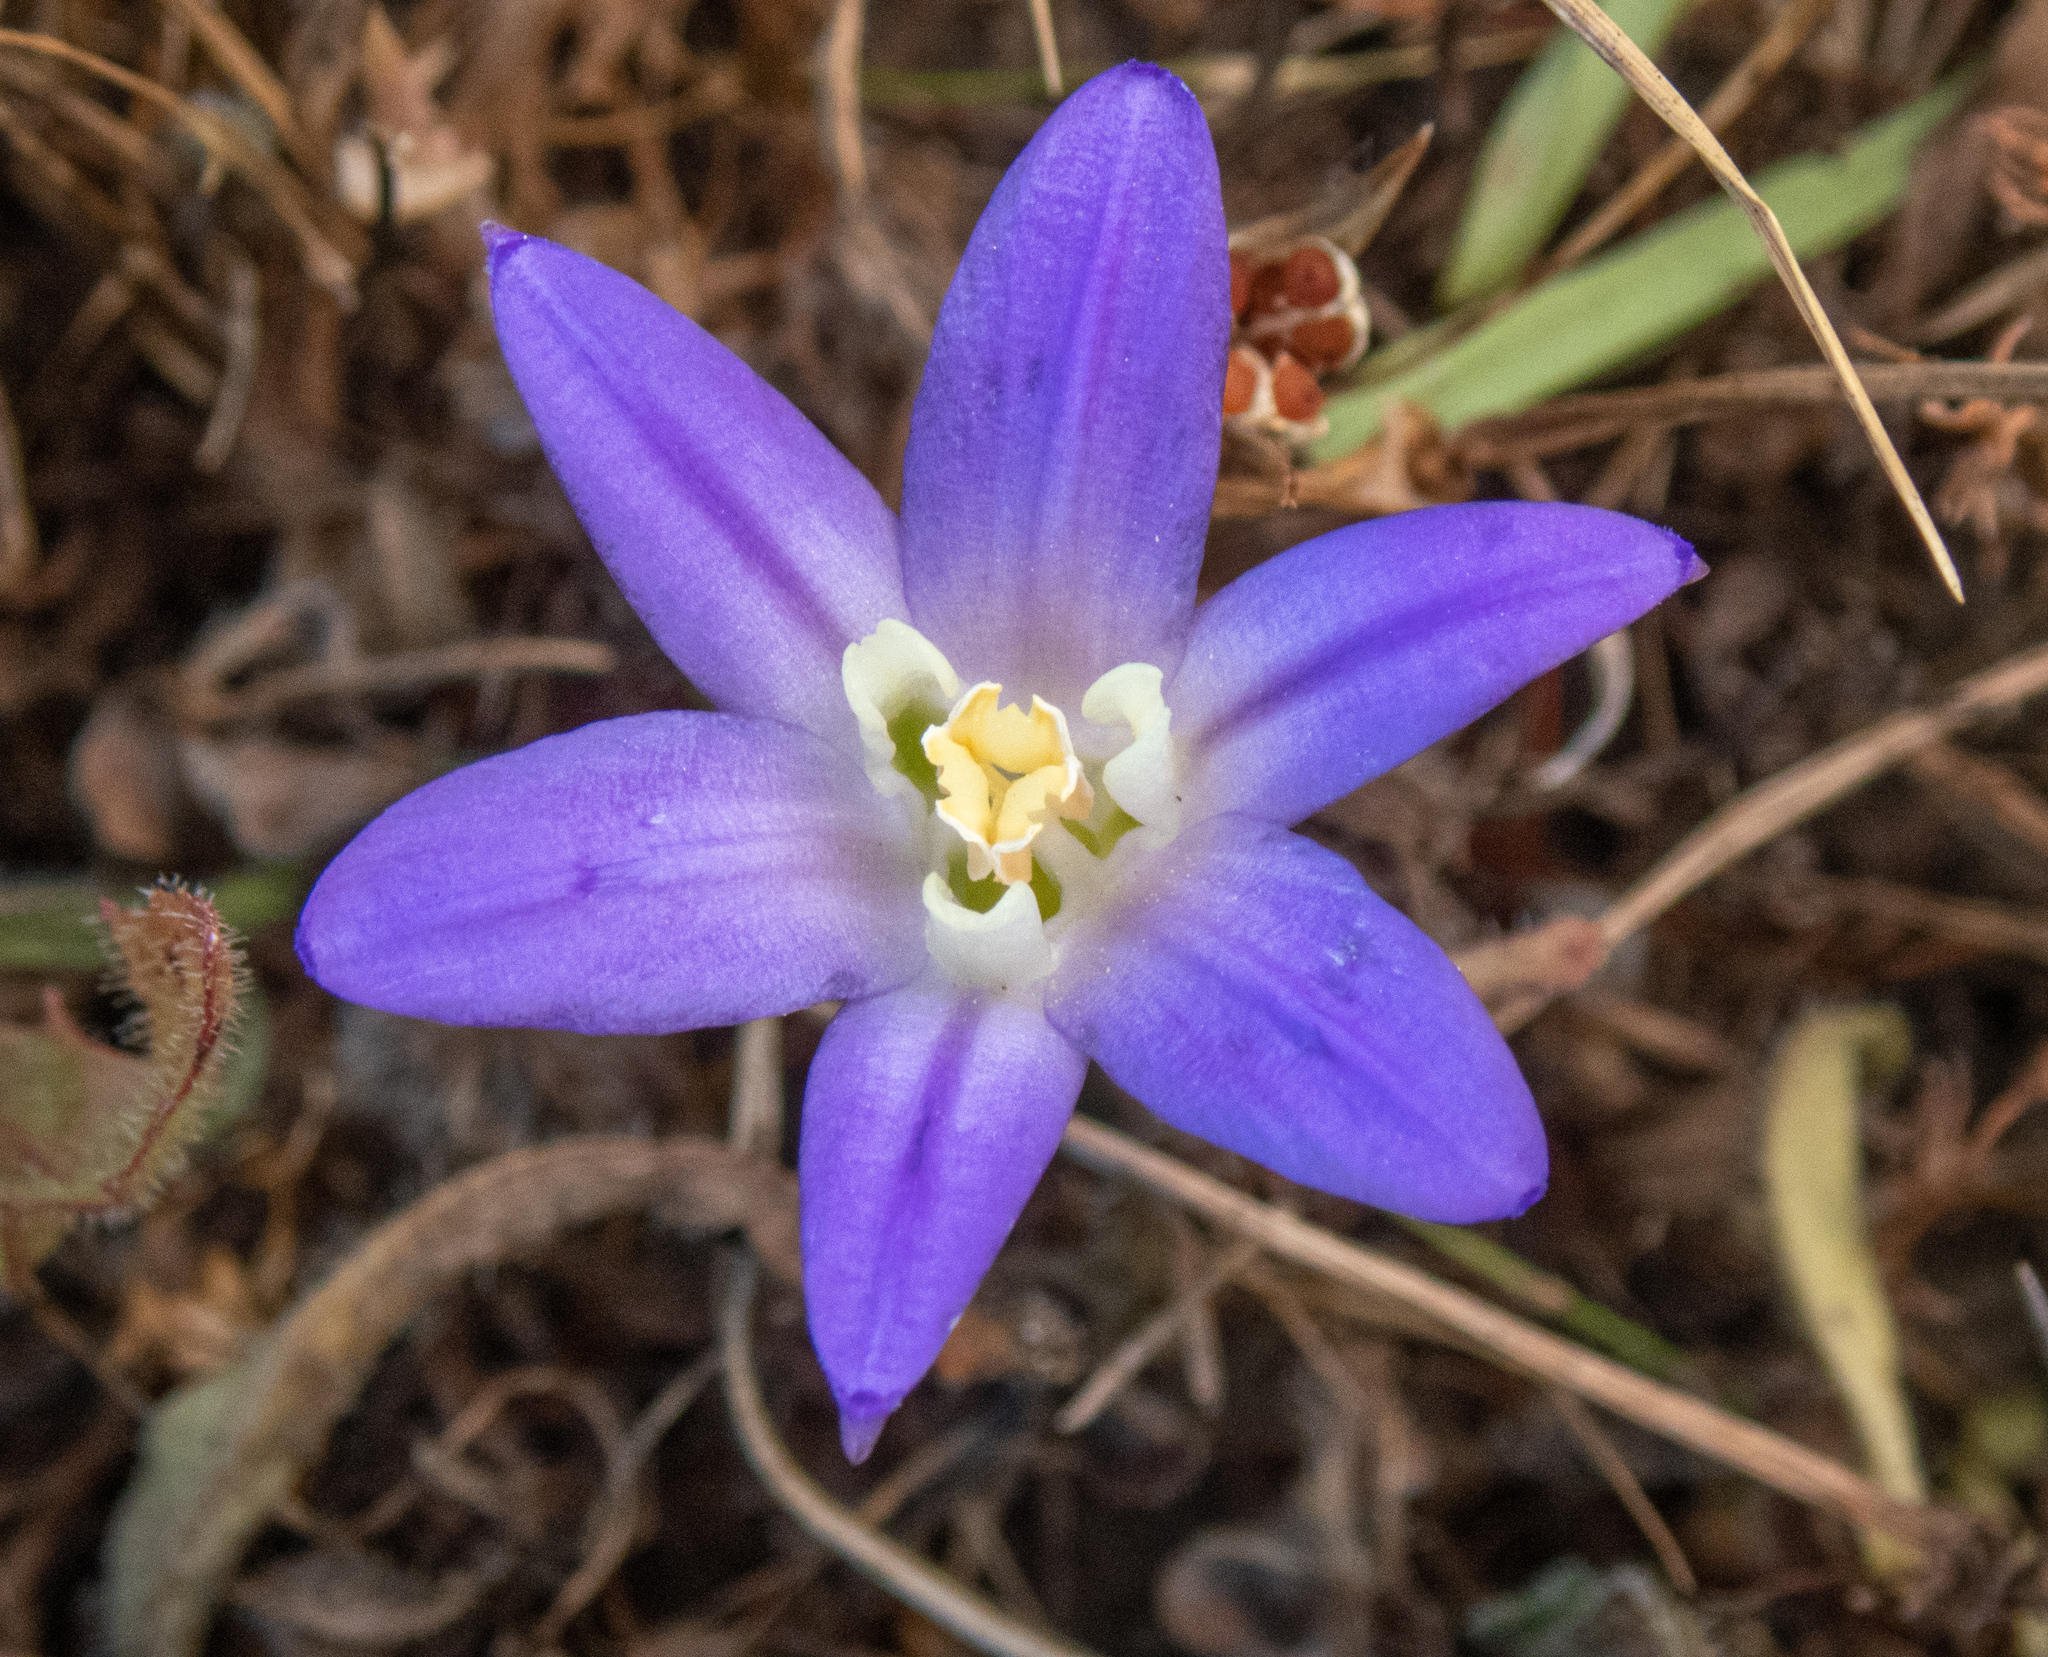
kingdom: Plantae
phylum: Tracheophyta
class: Liliopsida
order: Asparagales
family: Asparagaceae
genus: Brodiaea
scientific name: Brodiaea terrestris
